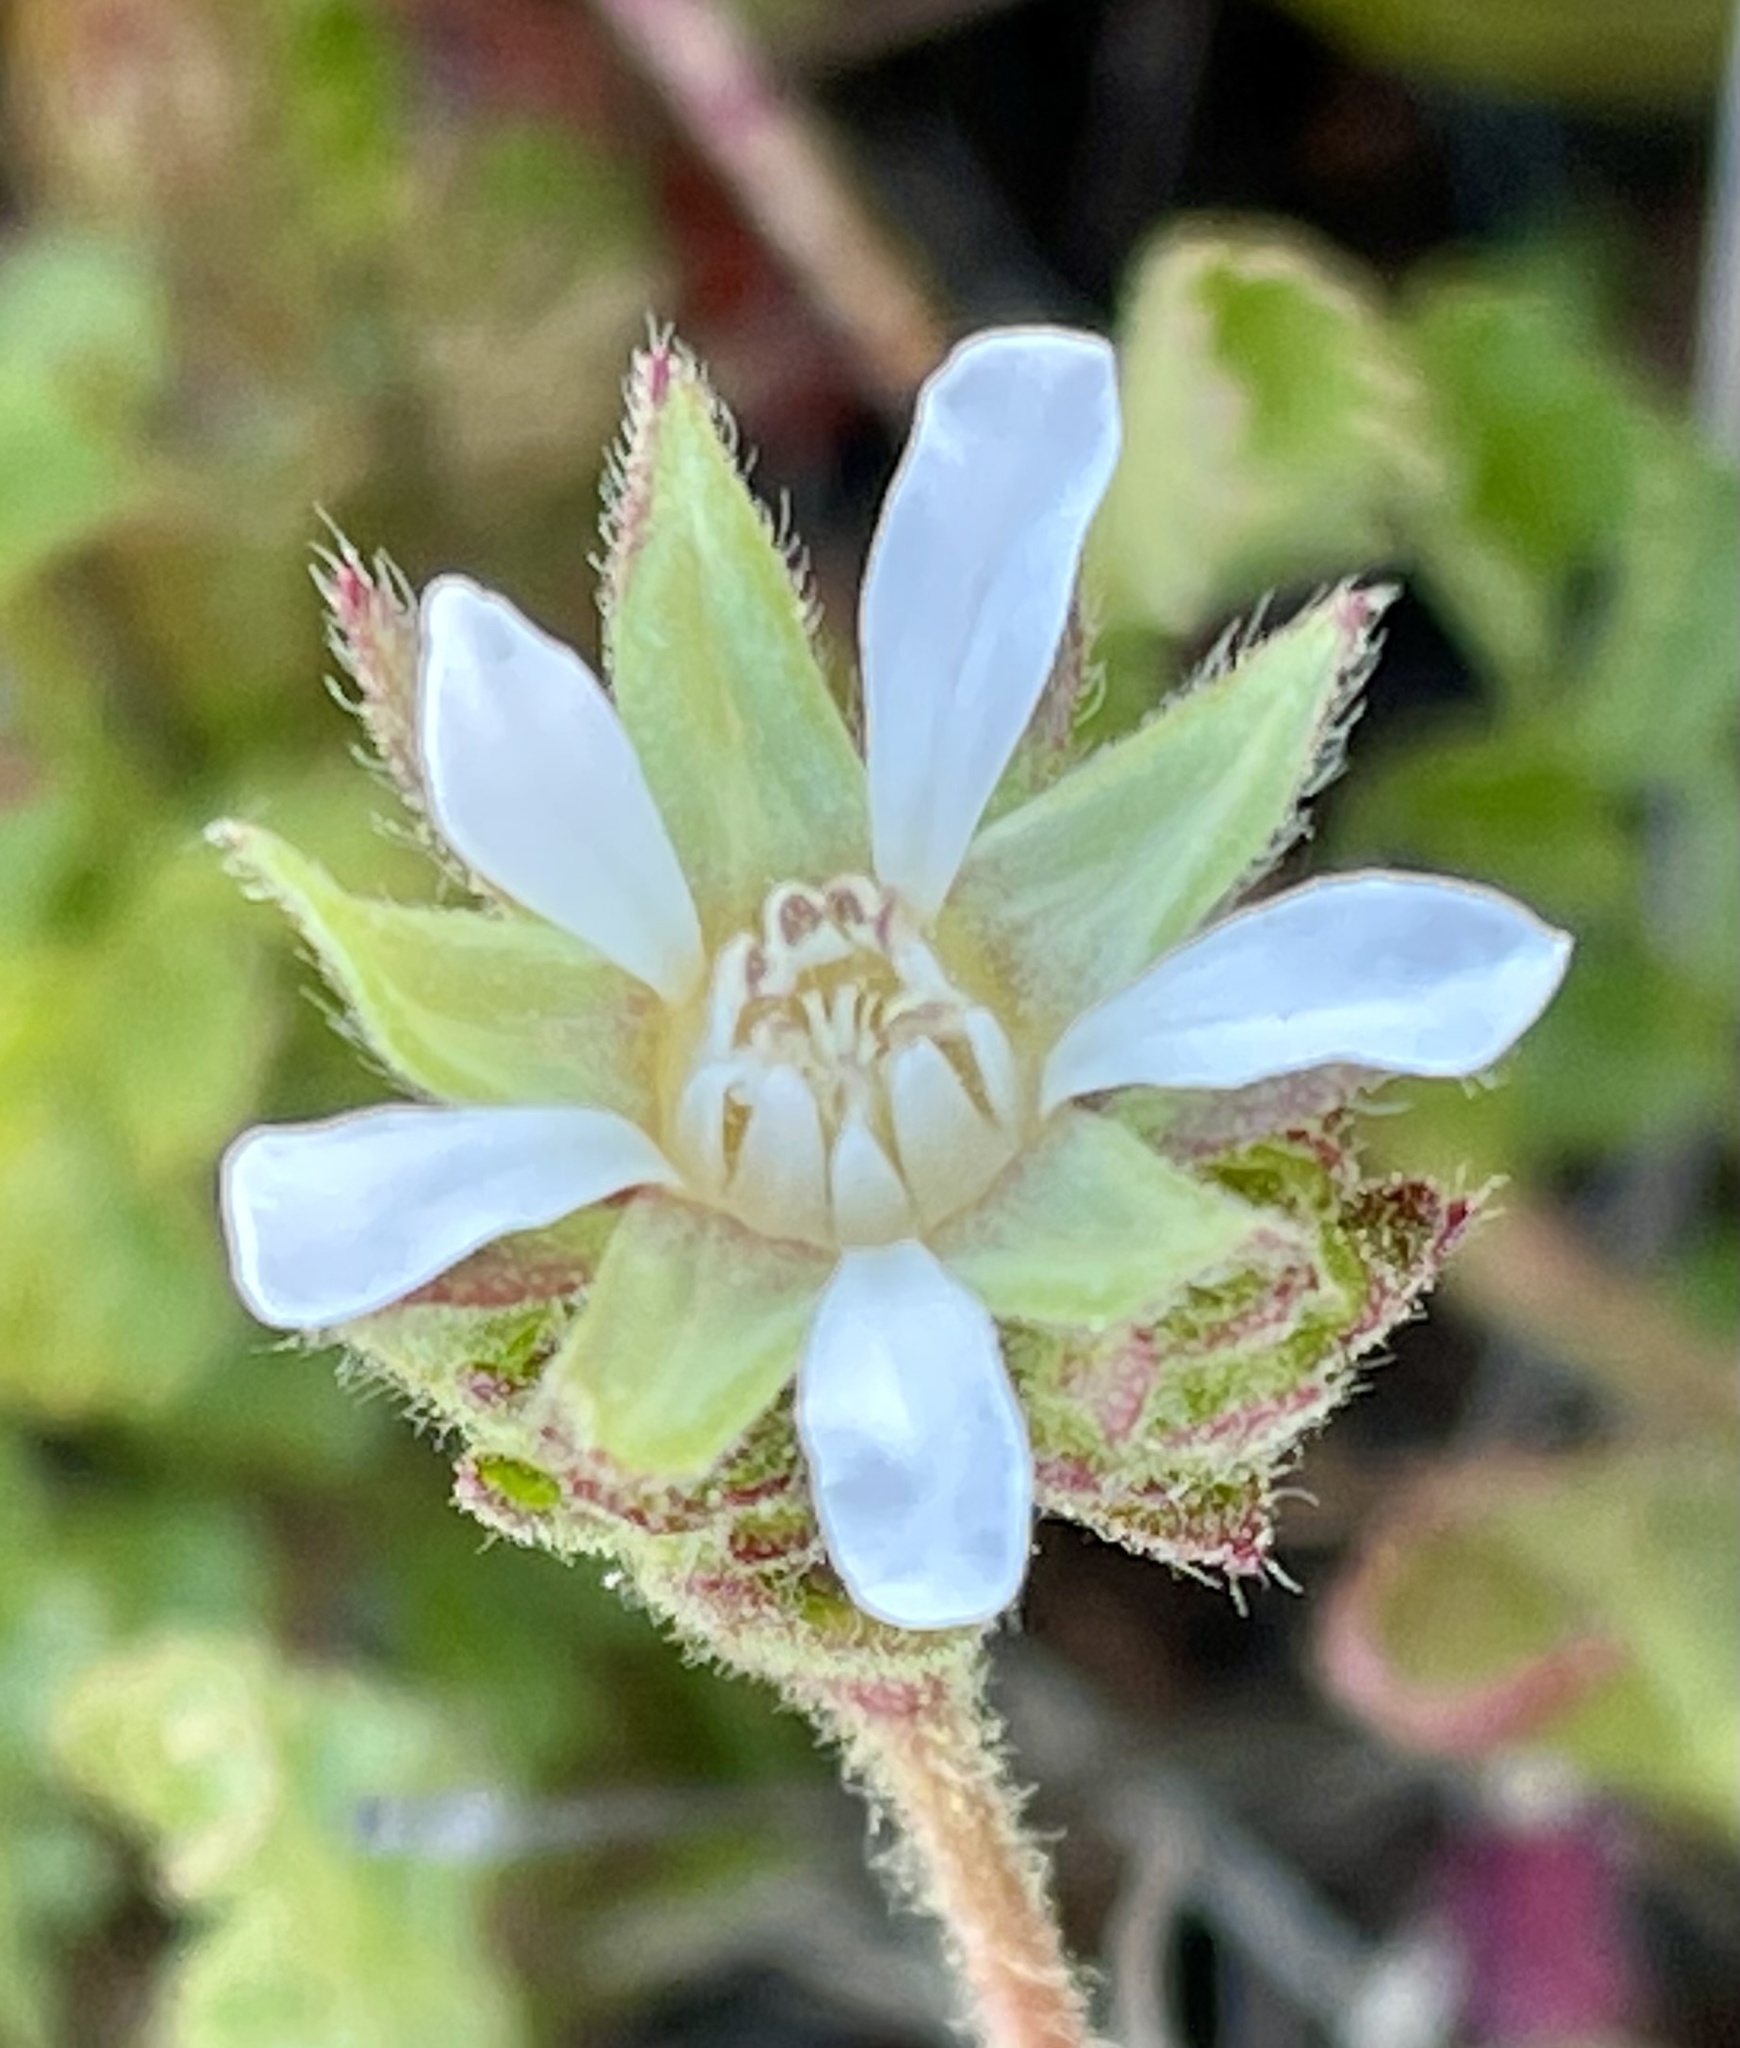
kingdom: Plantae
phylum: Tracheophyta
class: Magnoliopsida
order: Rosales
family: Rosaceae
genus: Potentilla
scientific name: Potentilla
